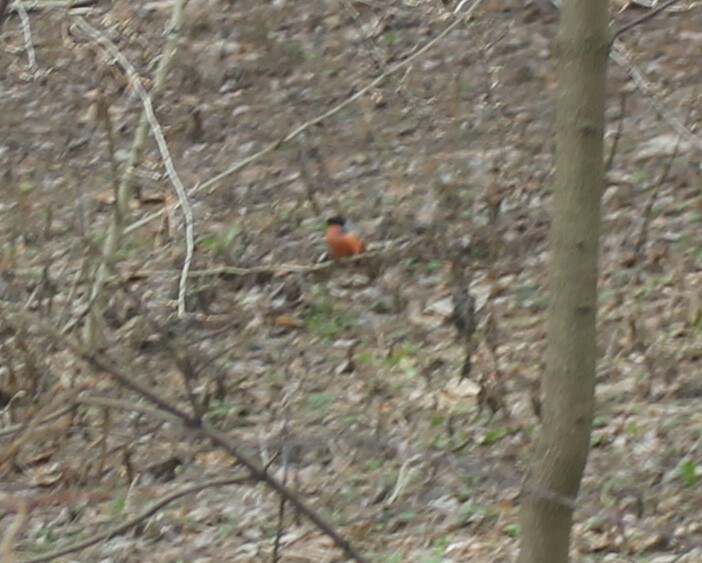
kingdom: Animalia
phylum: Chordata
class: Aves
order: Passeriformes
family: Fringillidae
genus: Pyrrhula
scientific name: Pyrrhula pyrrhula
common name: Eurasian bullfinch
